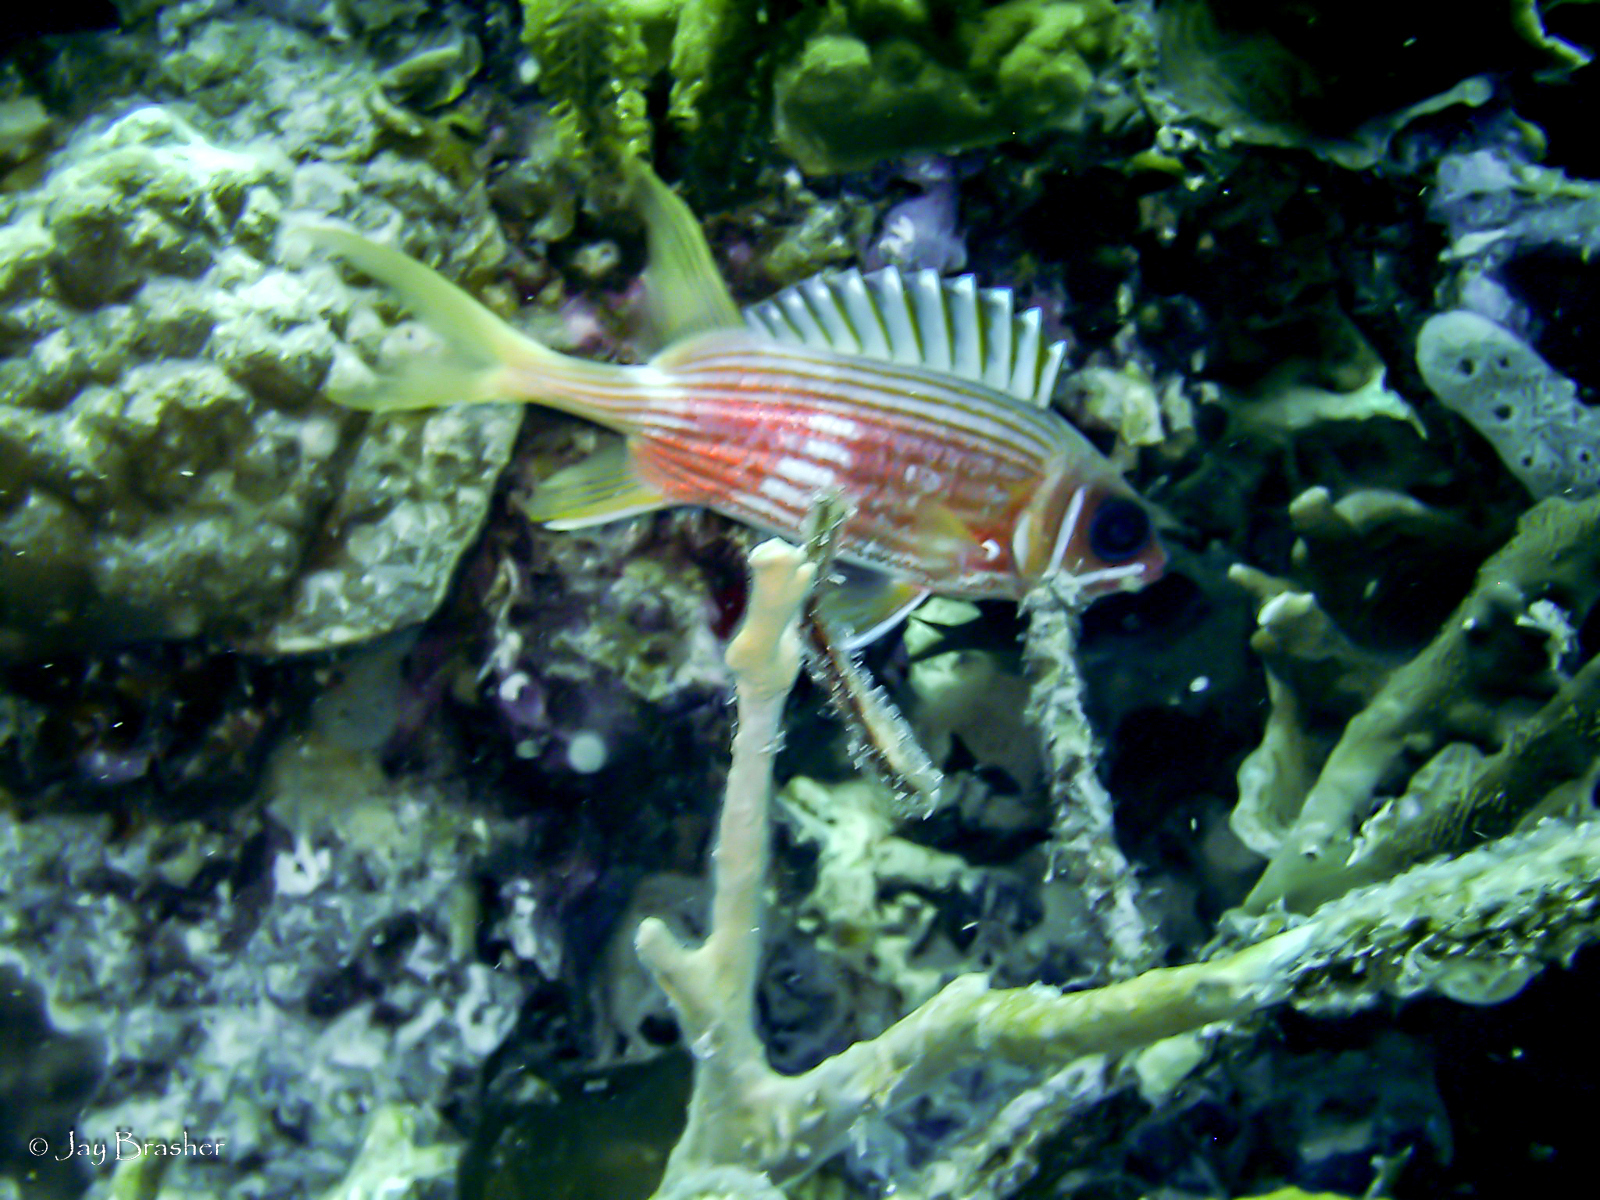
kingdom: Animalia
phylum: Chordata
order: Beryciformes
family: Holocentridae
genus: Holocentrus
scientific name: Holocentrus rufus
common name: Longspine squirrelfish
